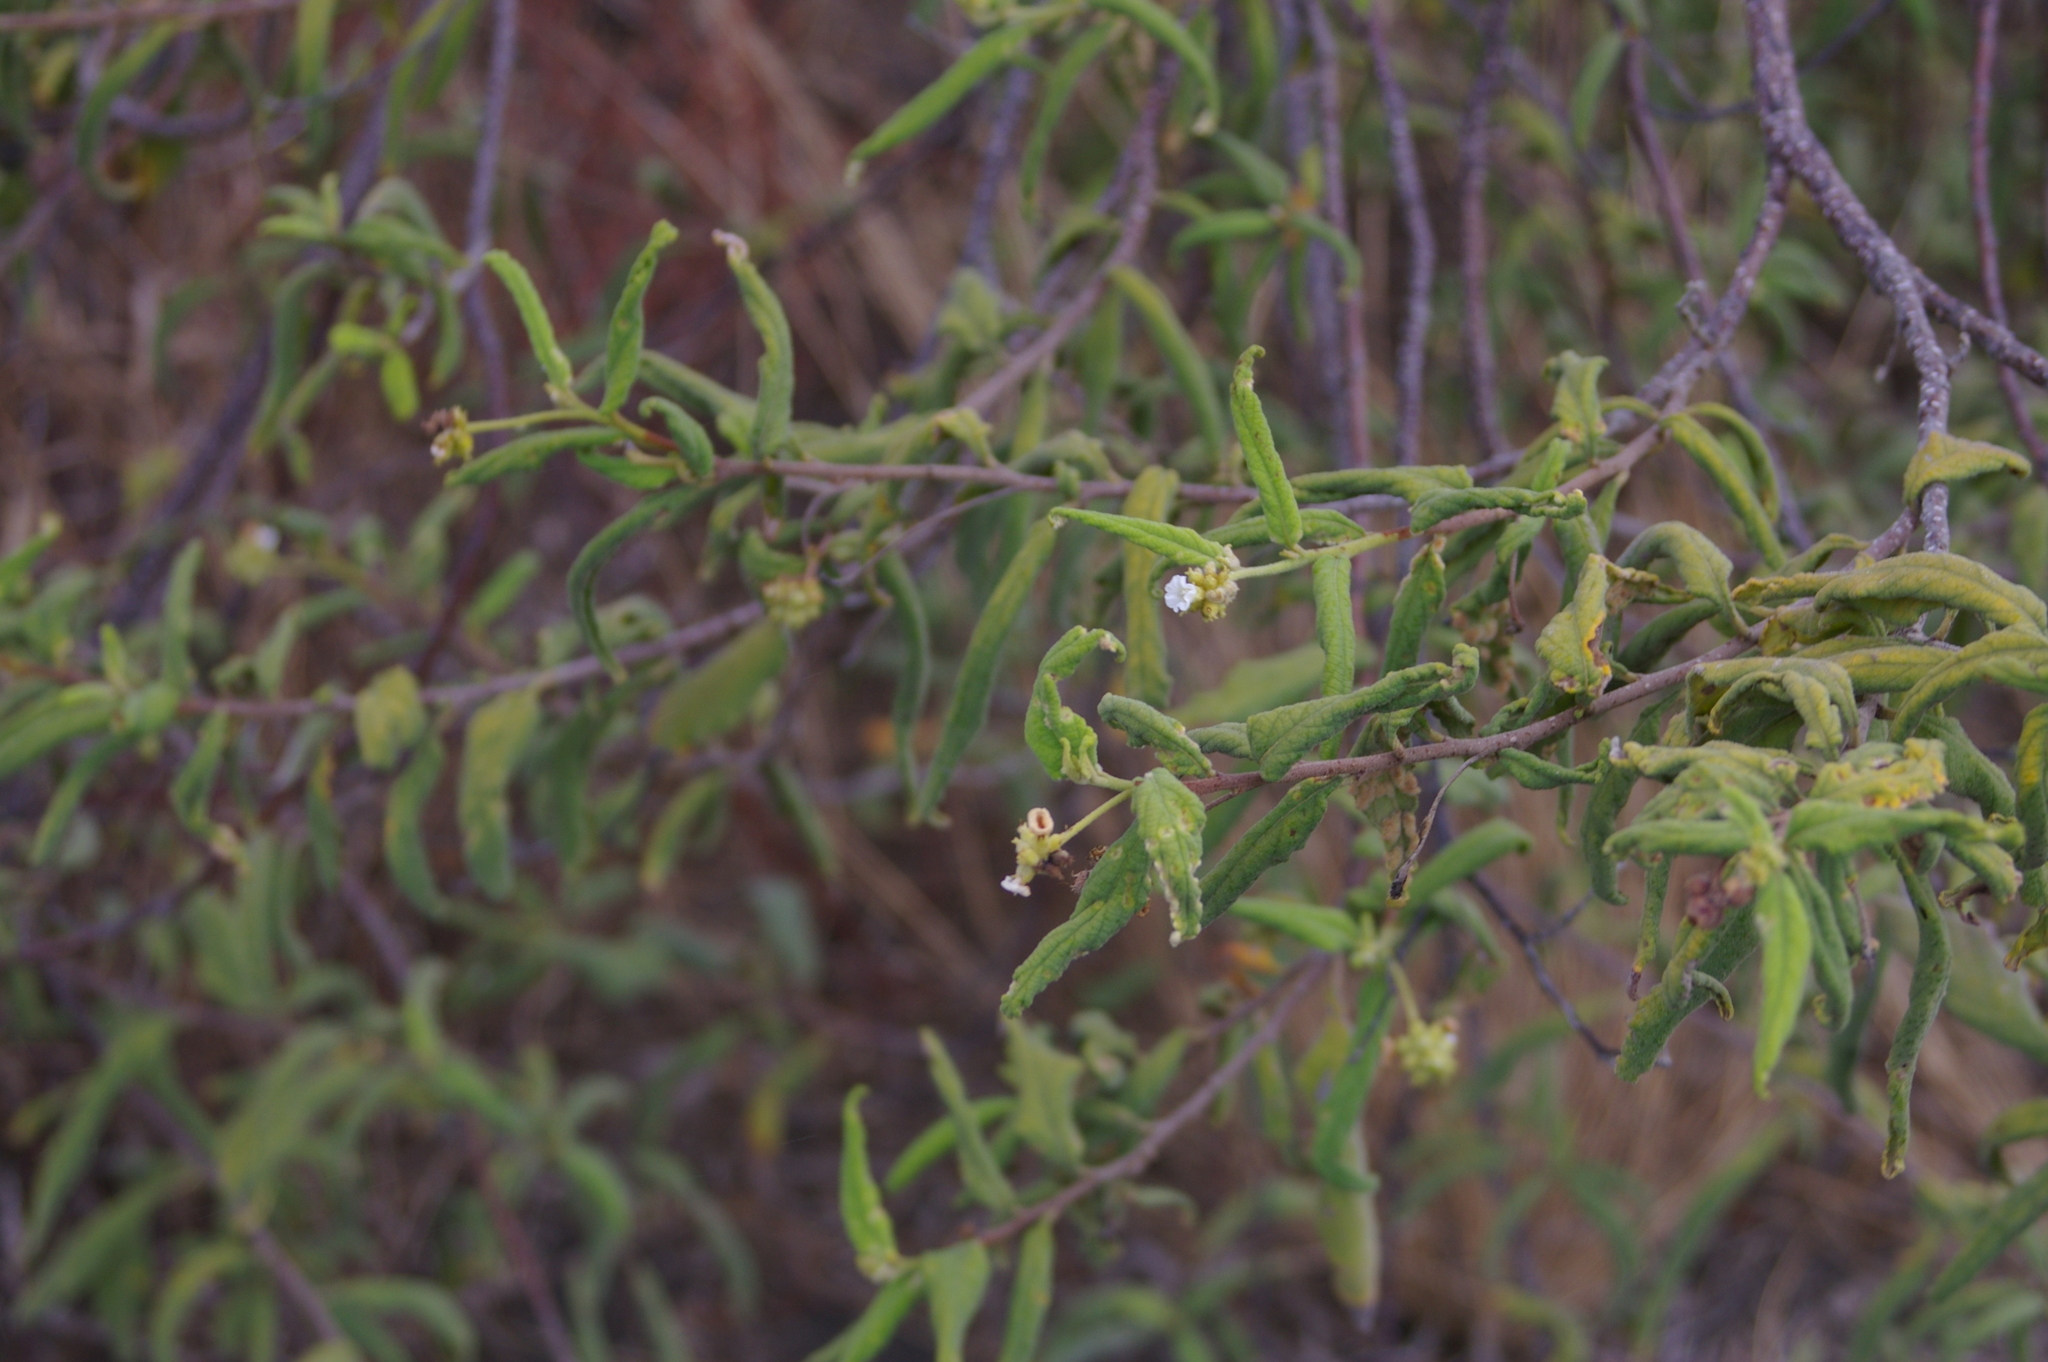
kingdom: Plantae
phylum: Tracheophyta
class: Magnoliopsida
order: Boraginales
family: Cordiaceae
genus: Varronia
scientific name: Varronia leucophlyctis
